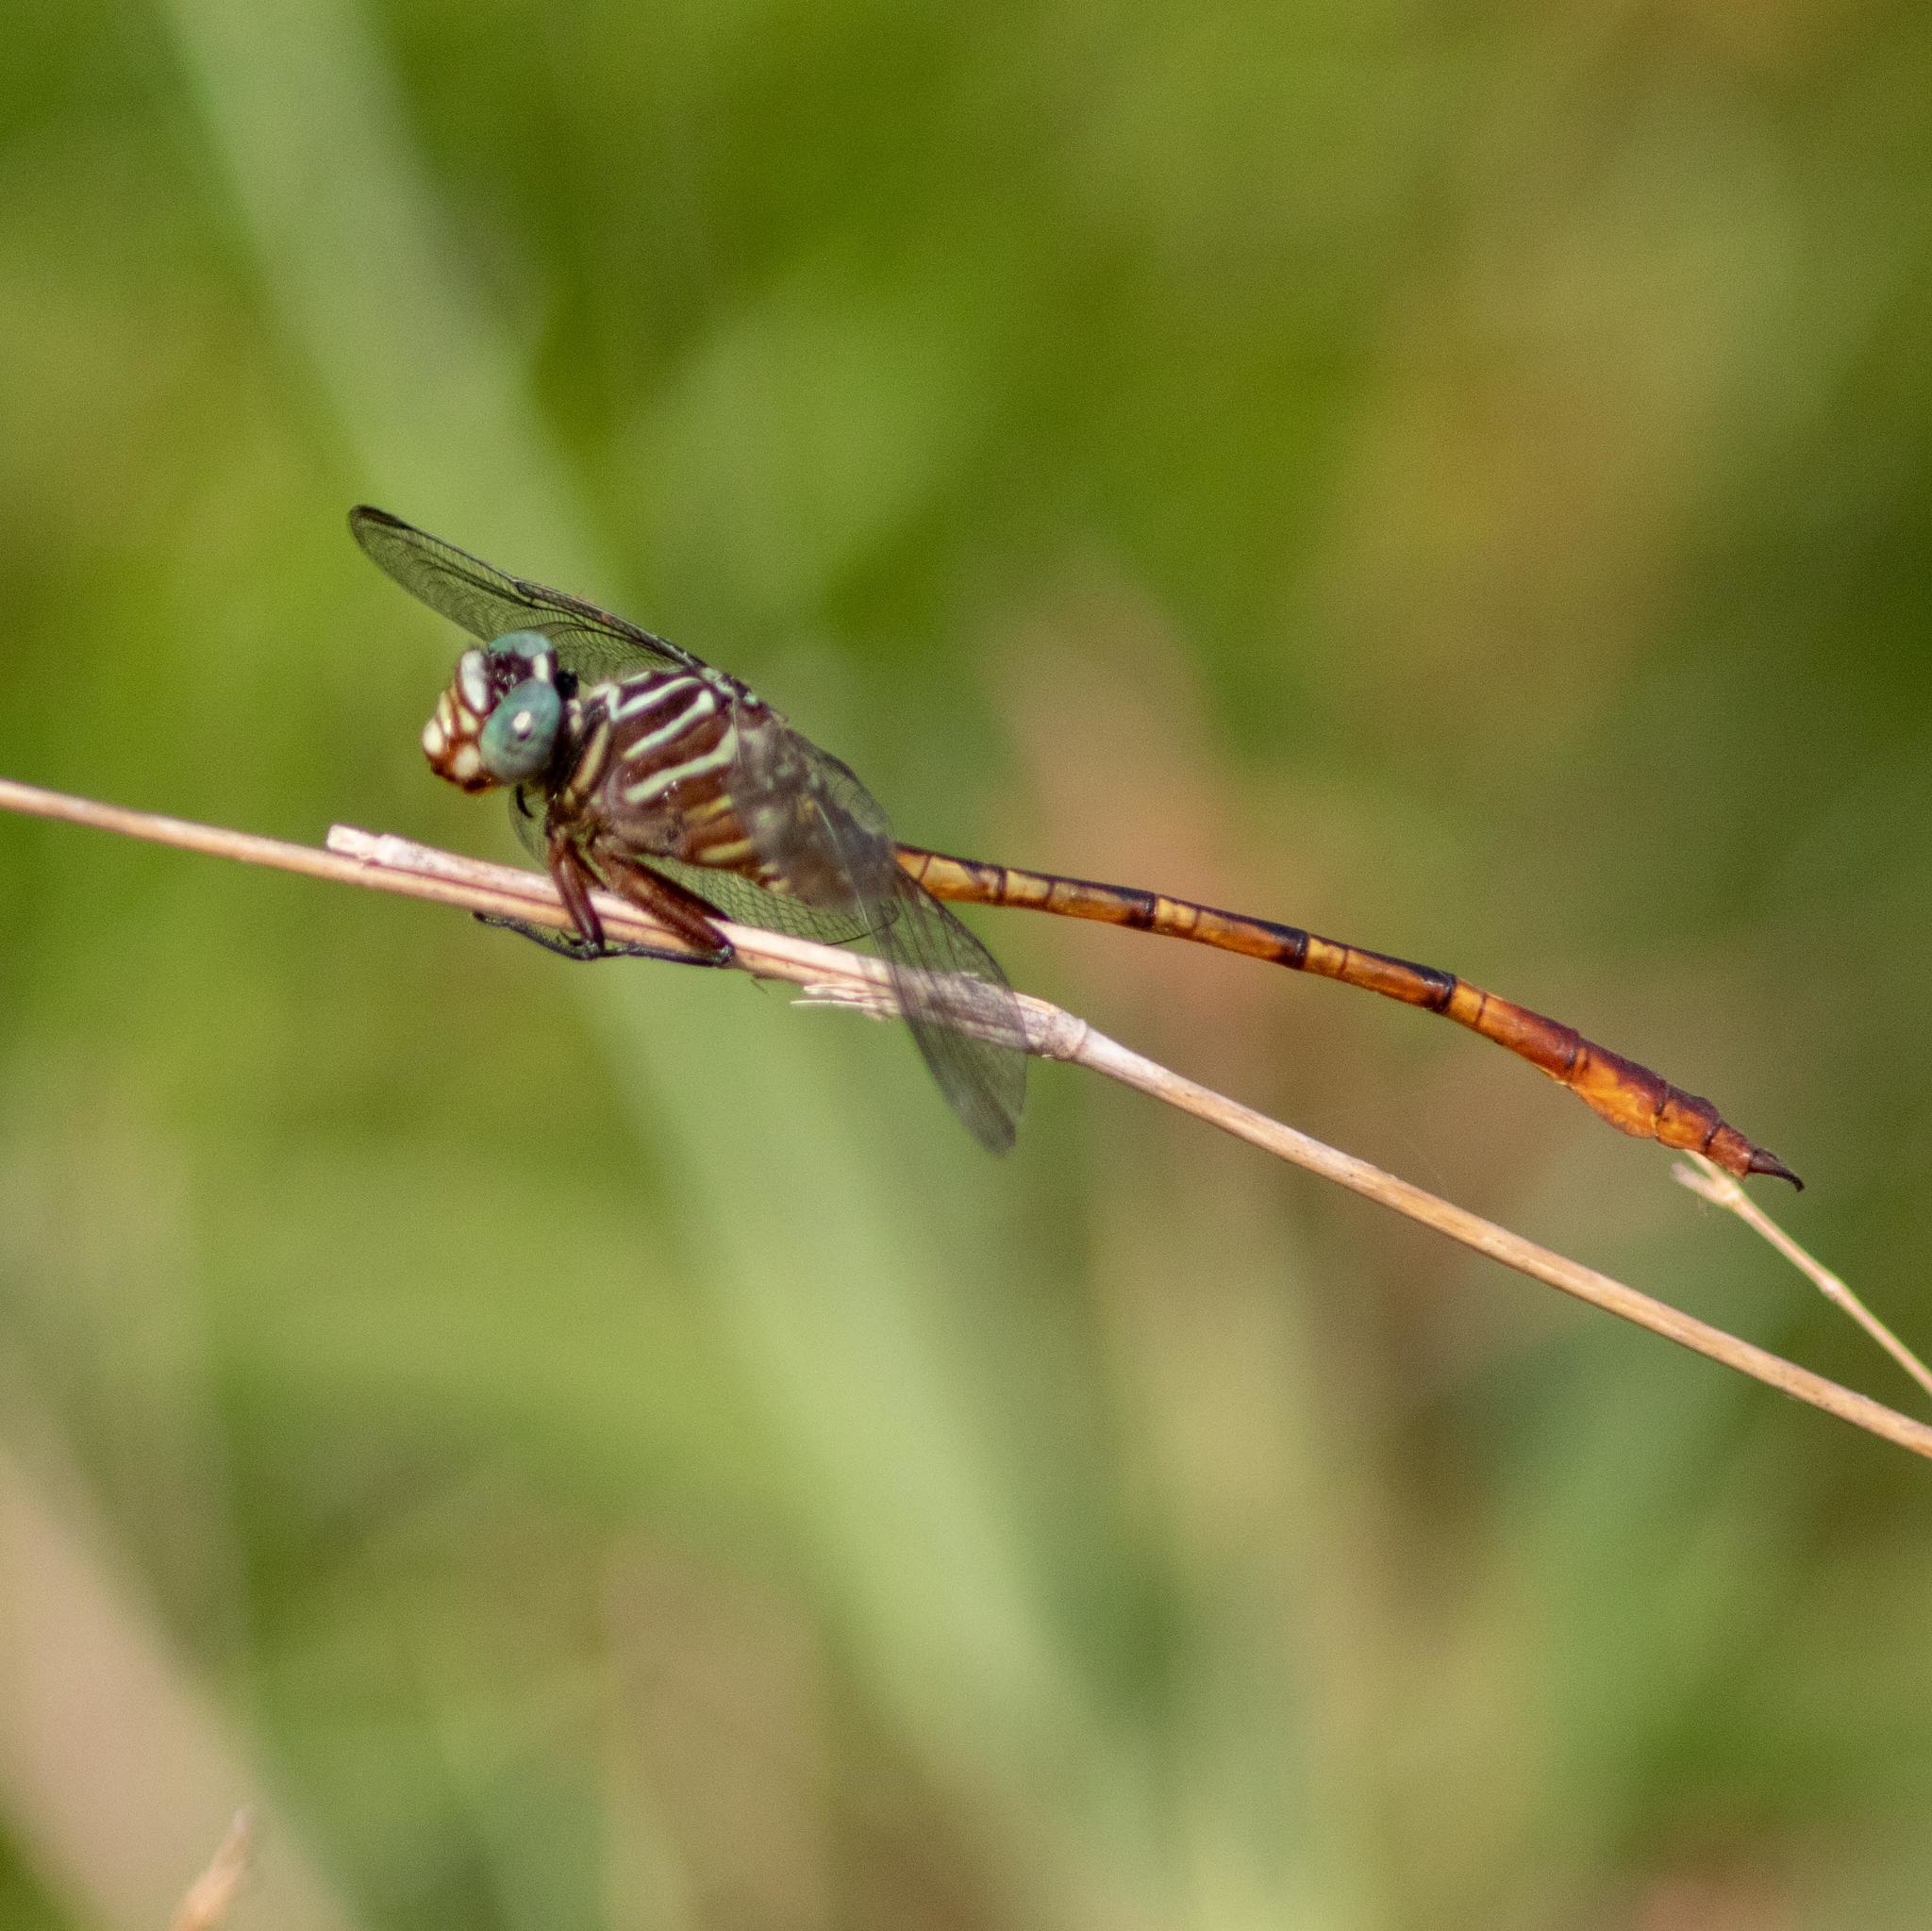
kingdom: Animalia
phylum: Arthropoda
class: Insecta
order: Odonata
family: Gomphidae
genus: Aphylla
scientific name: Aphylla protracta
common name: Narrow-striped forceptail
